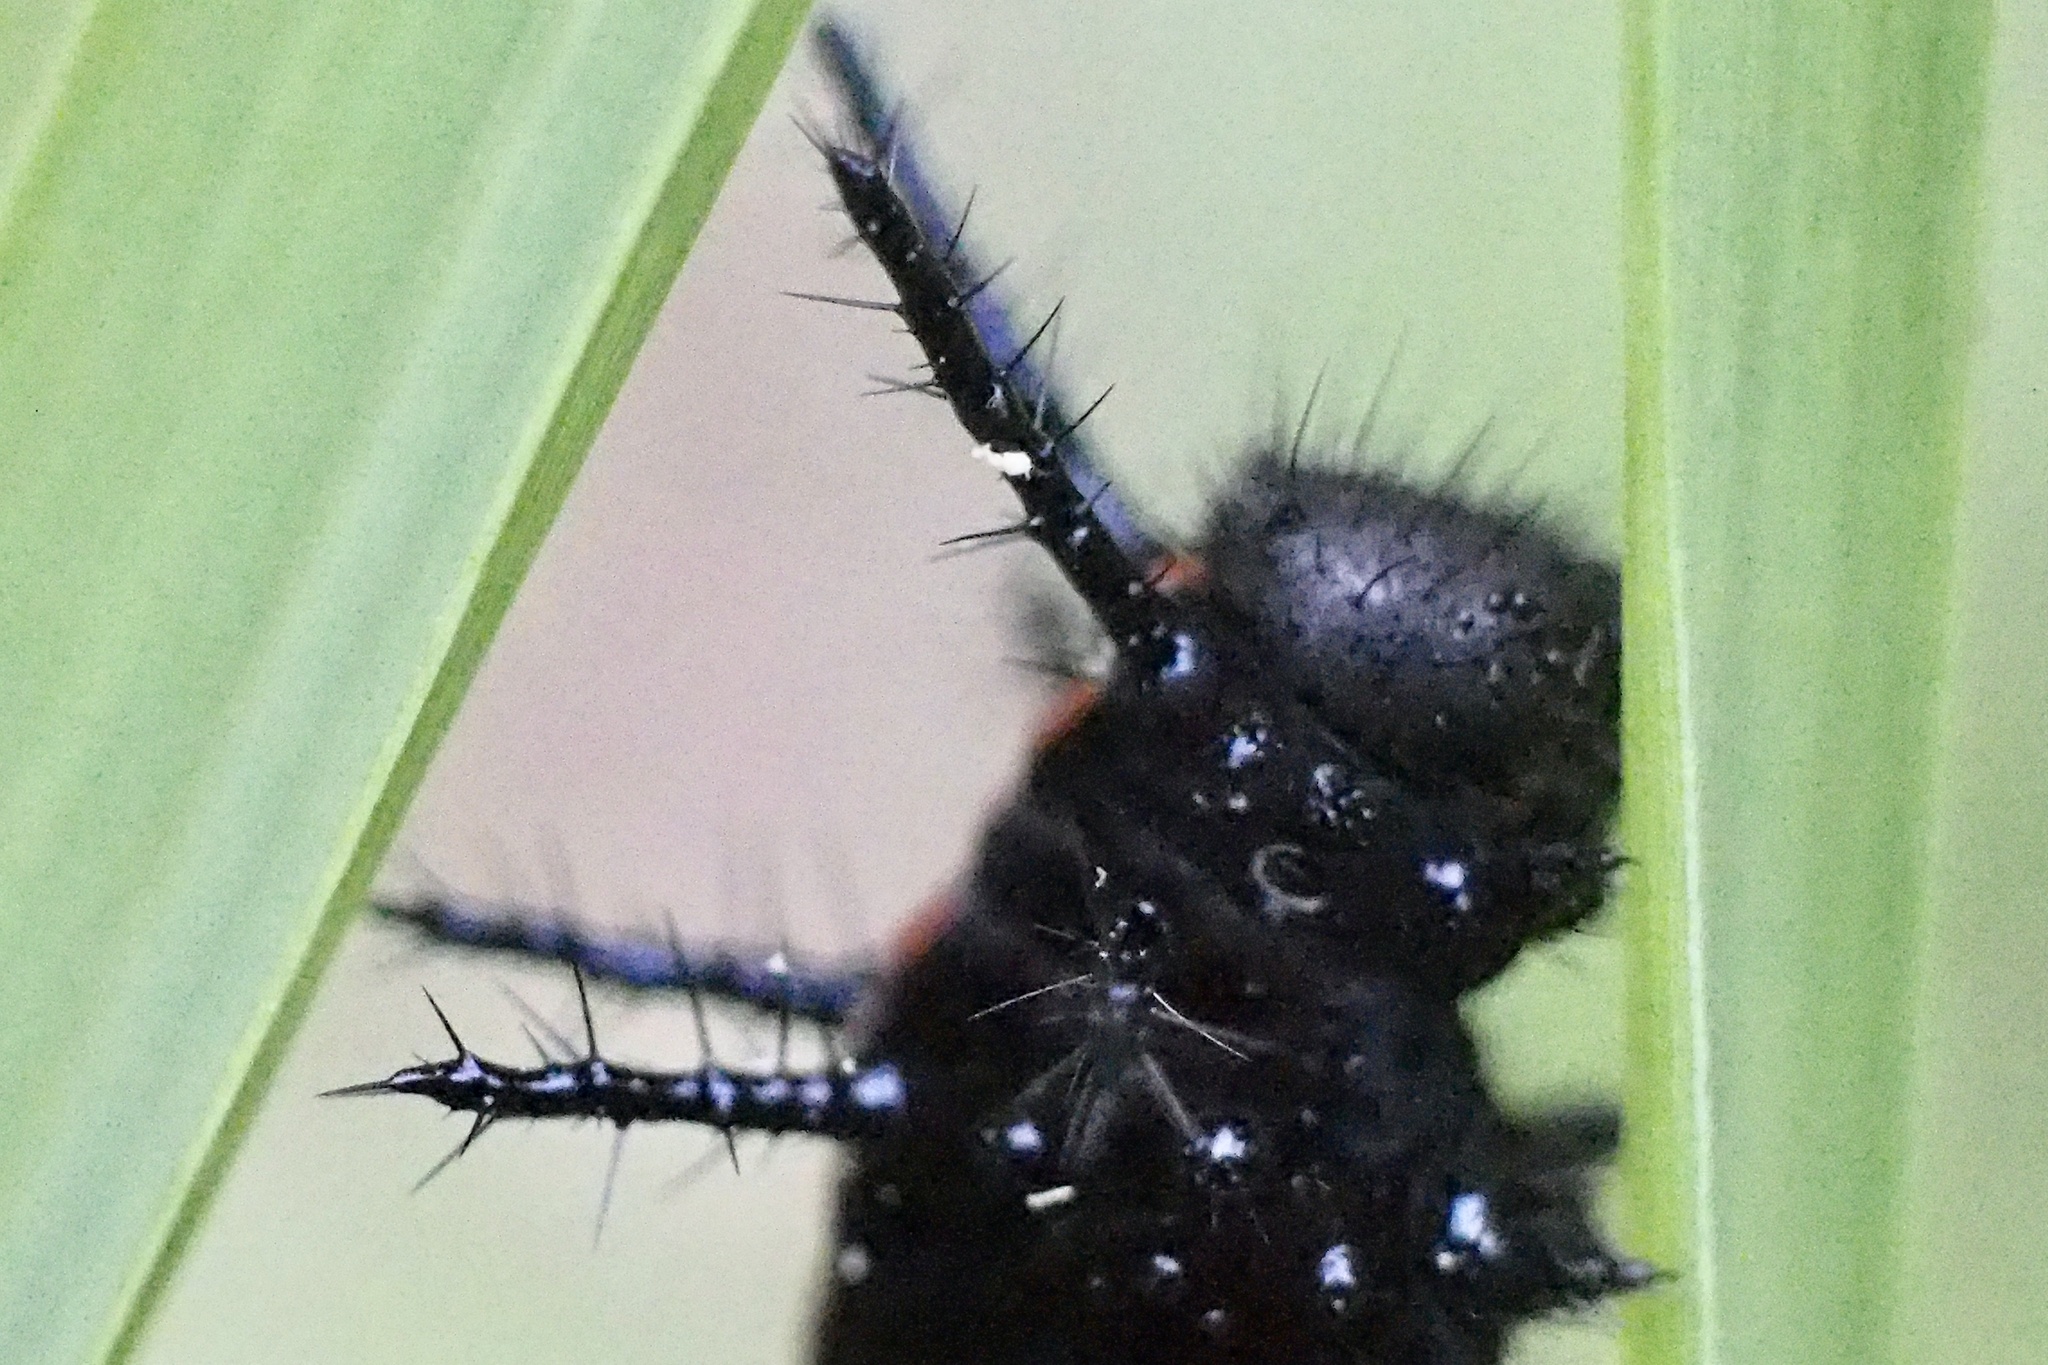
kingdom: Animalia
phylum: Arthropoda
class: Insecta
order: Lepidoptera
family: Nymphalidae
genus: Argynnis
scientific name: Argynnis hyperbius
